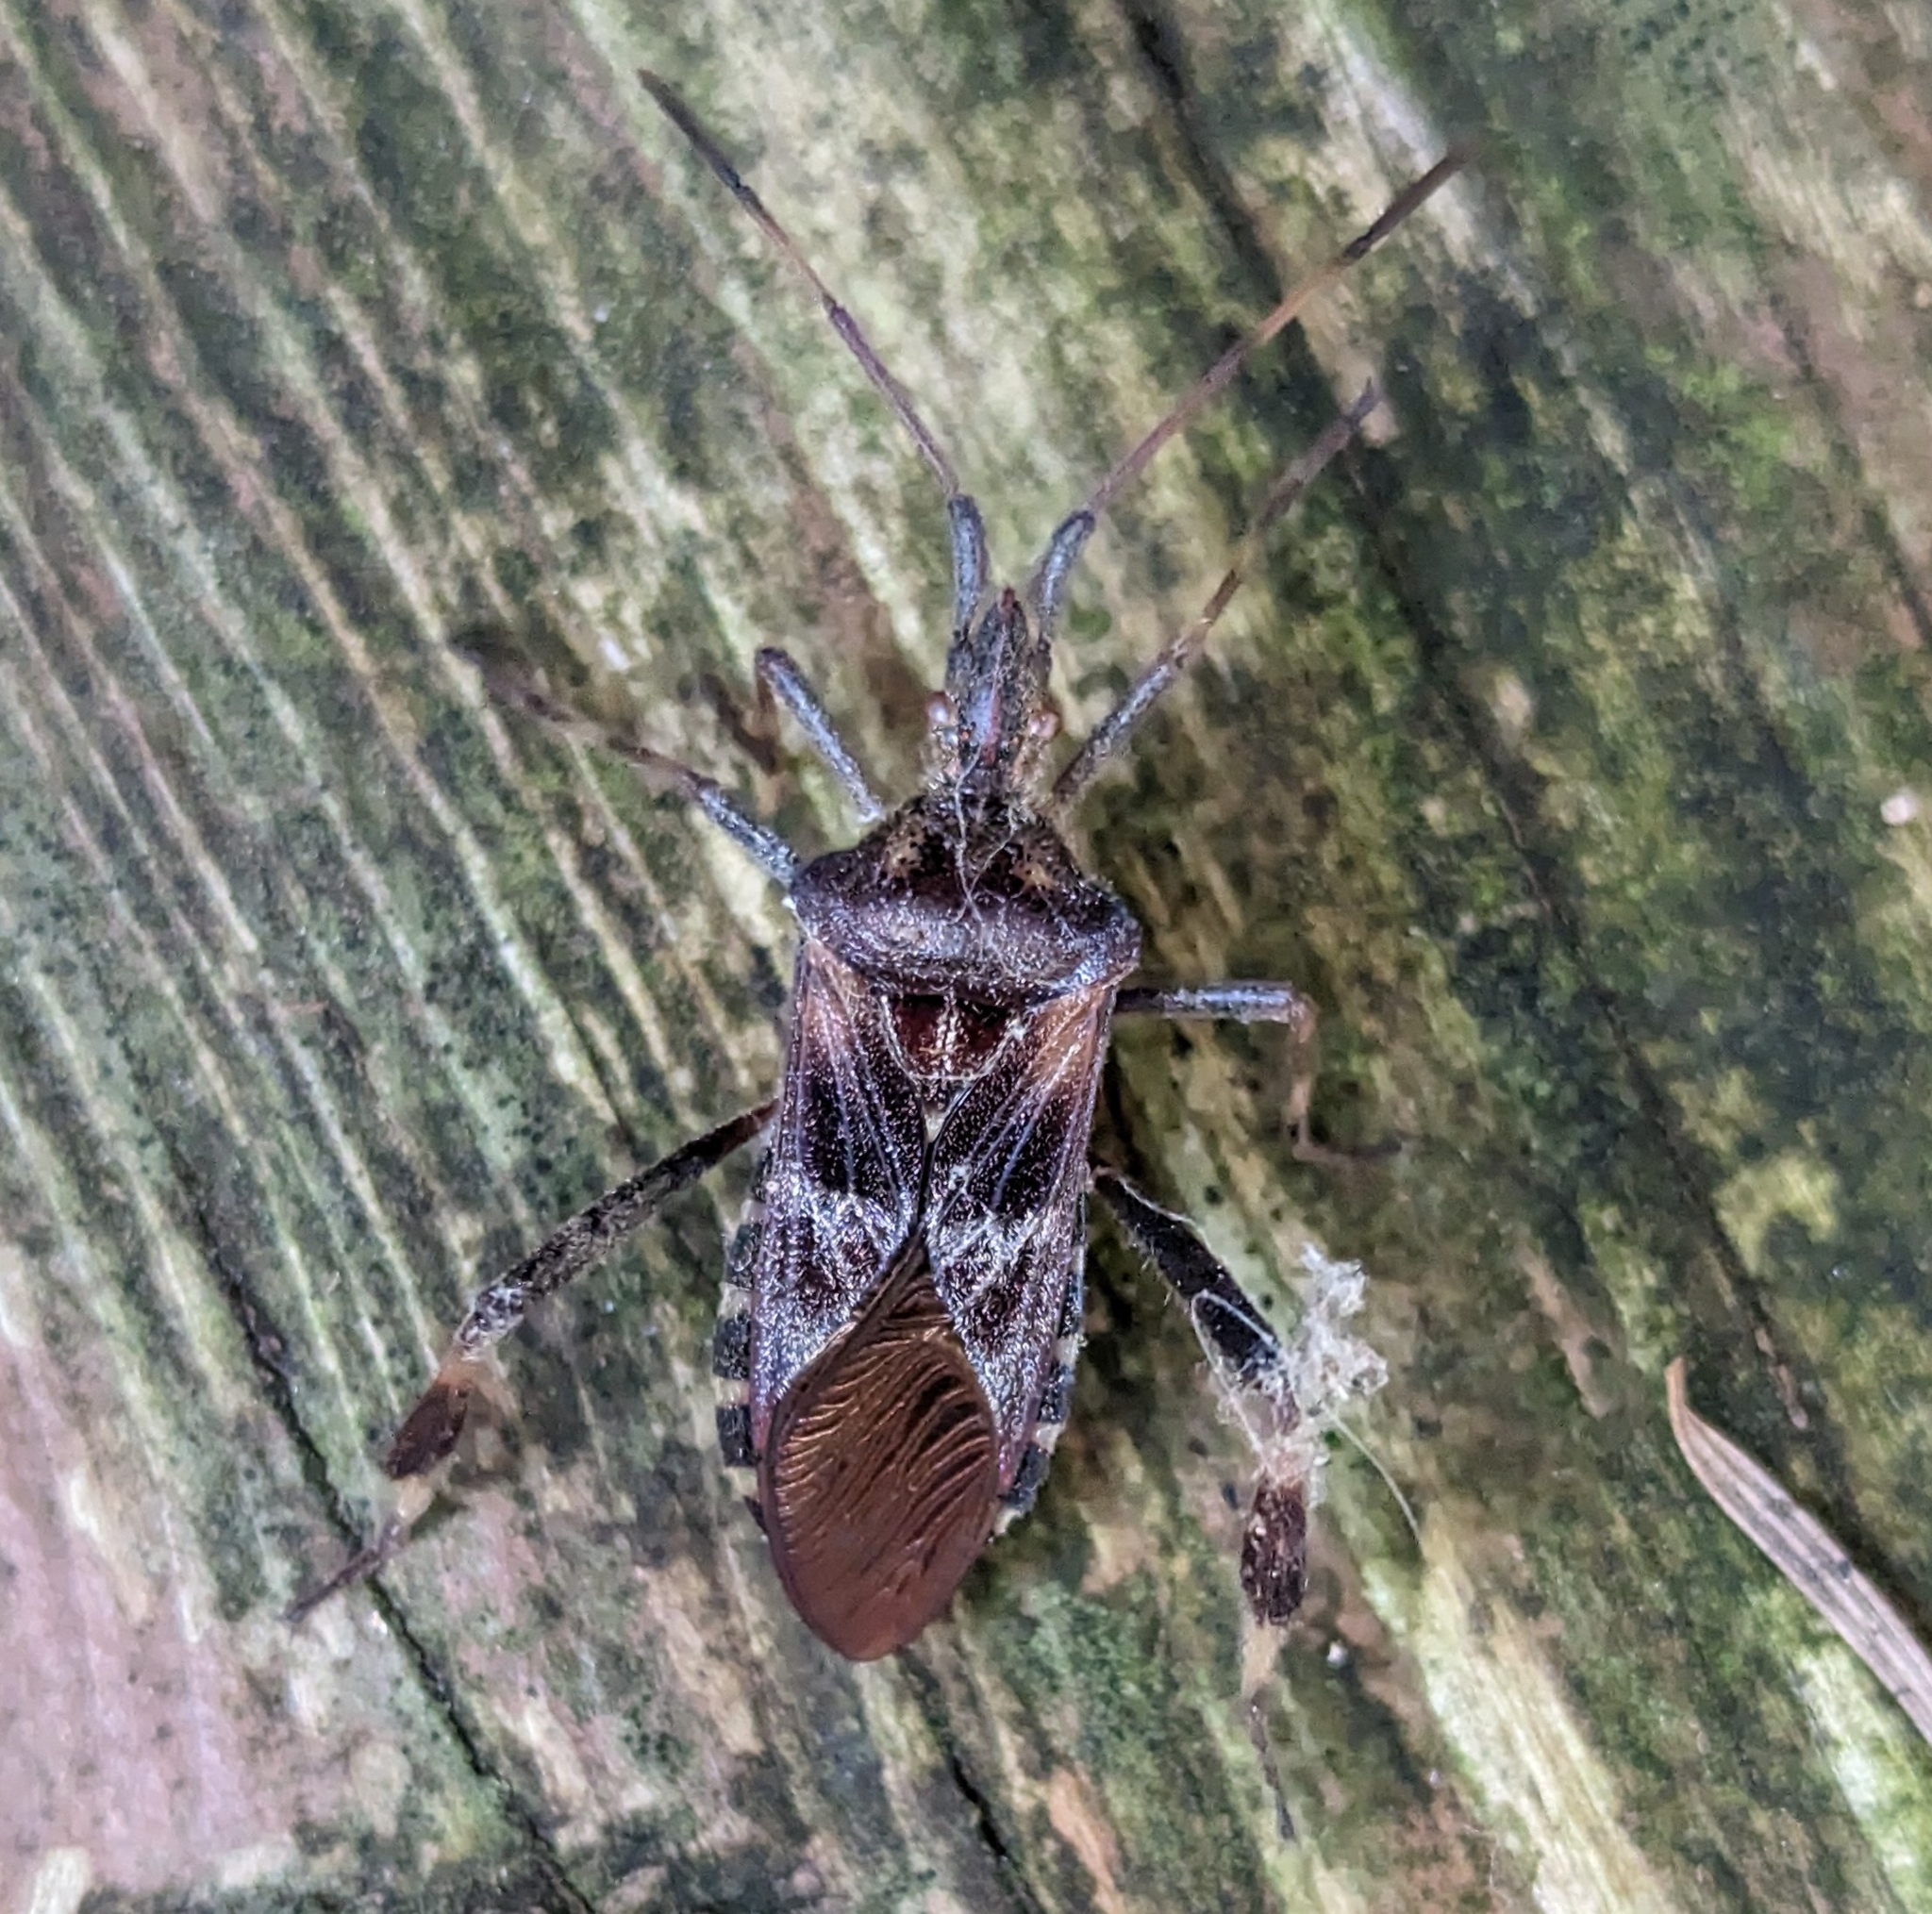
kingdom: Animalia
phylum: Arthropoda
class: Insecta
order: Hemiptera
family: Coreidae
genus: Leptoglossus
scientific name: Leptoglossus occidentalis
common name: Western conifer-seed bug
